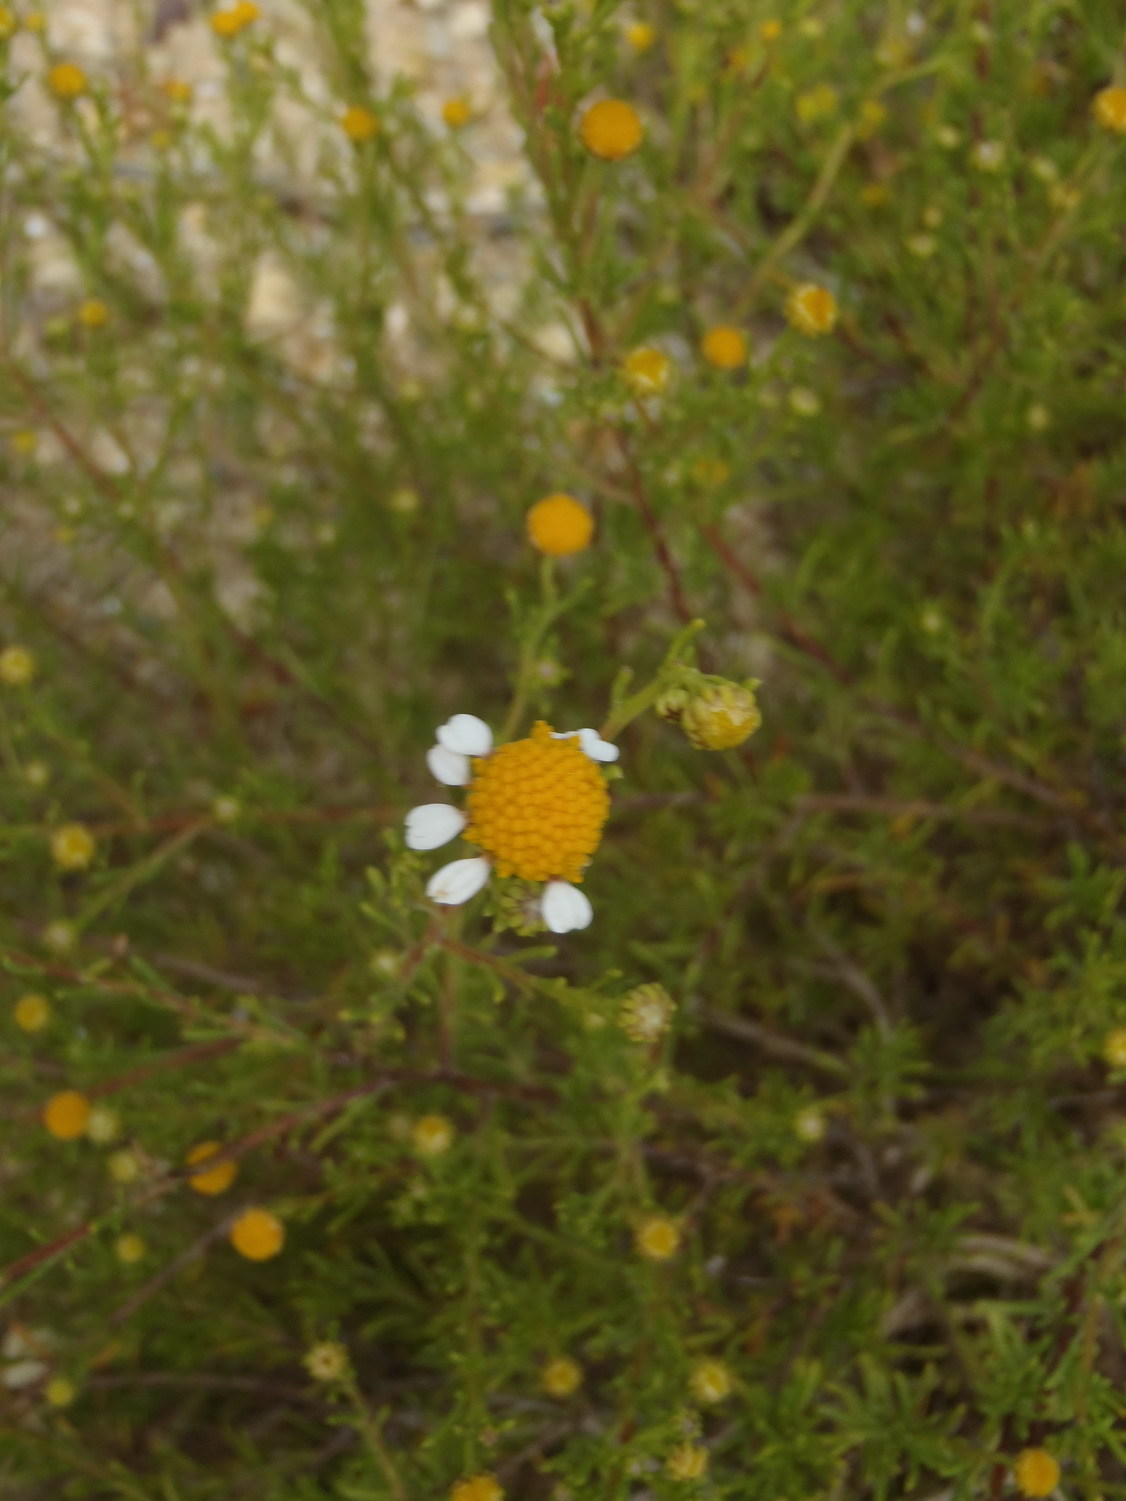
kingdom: Plantae
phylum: Tracheophyta
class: Magnoliopsida
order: Asterales
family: Asteraceae
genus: Cymbopappus
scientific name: Cymbopappus adenosolen
